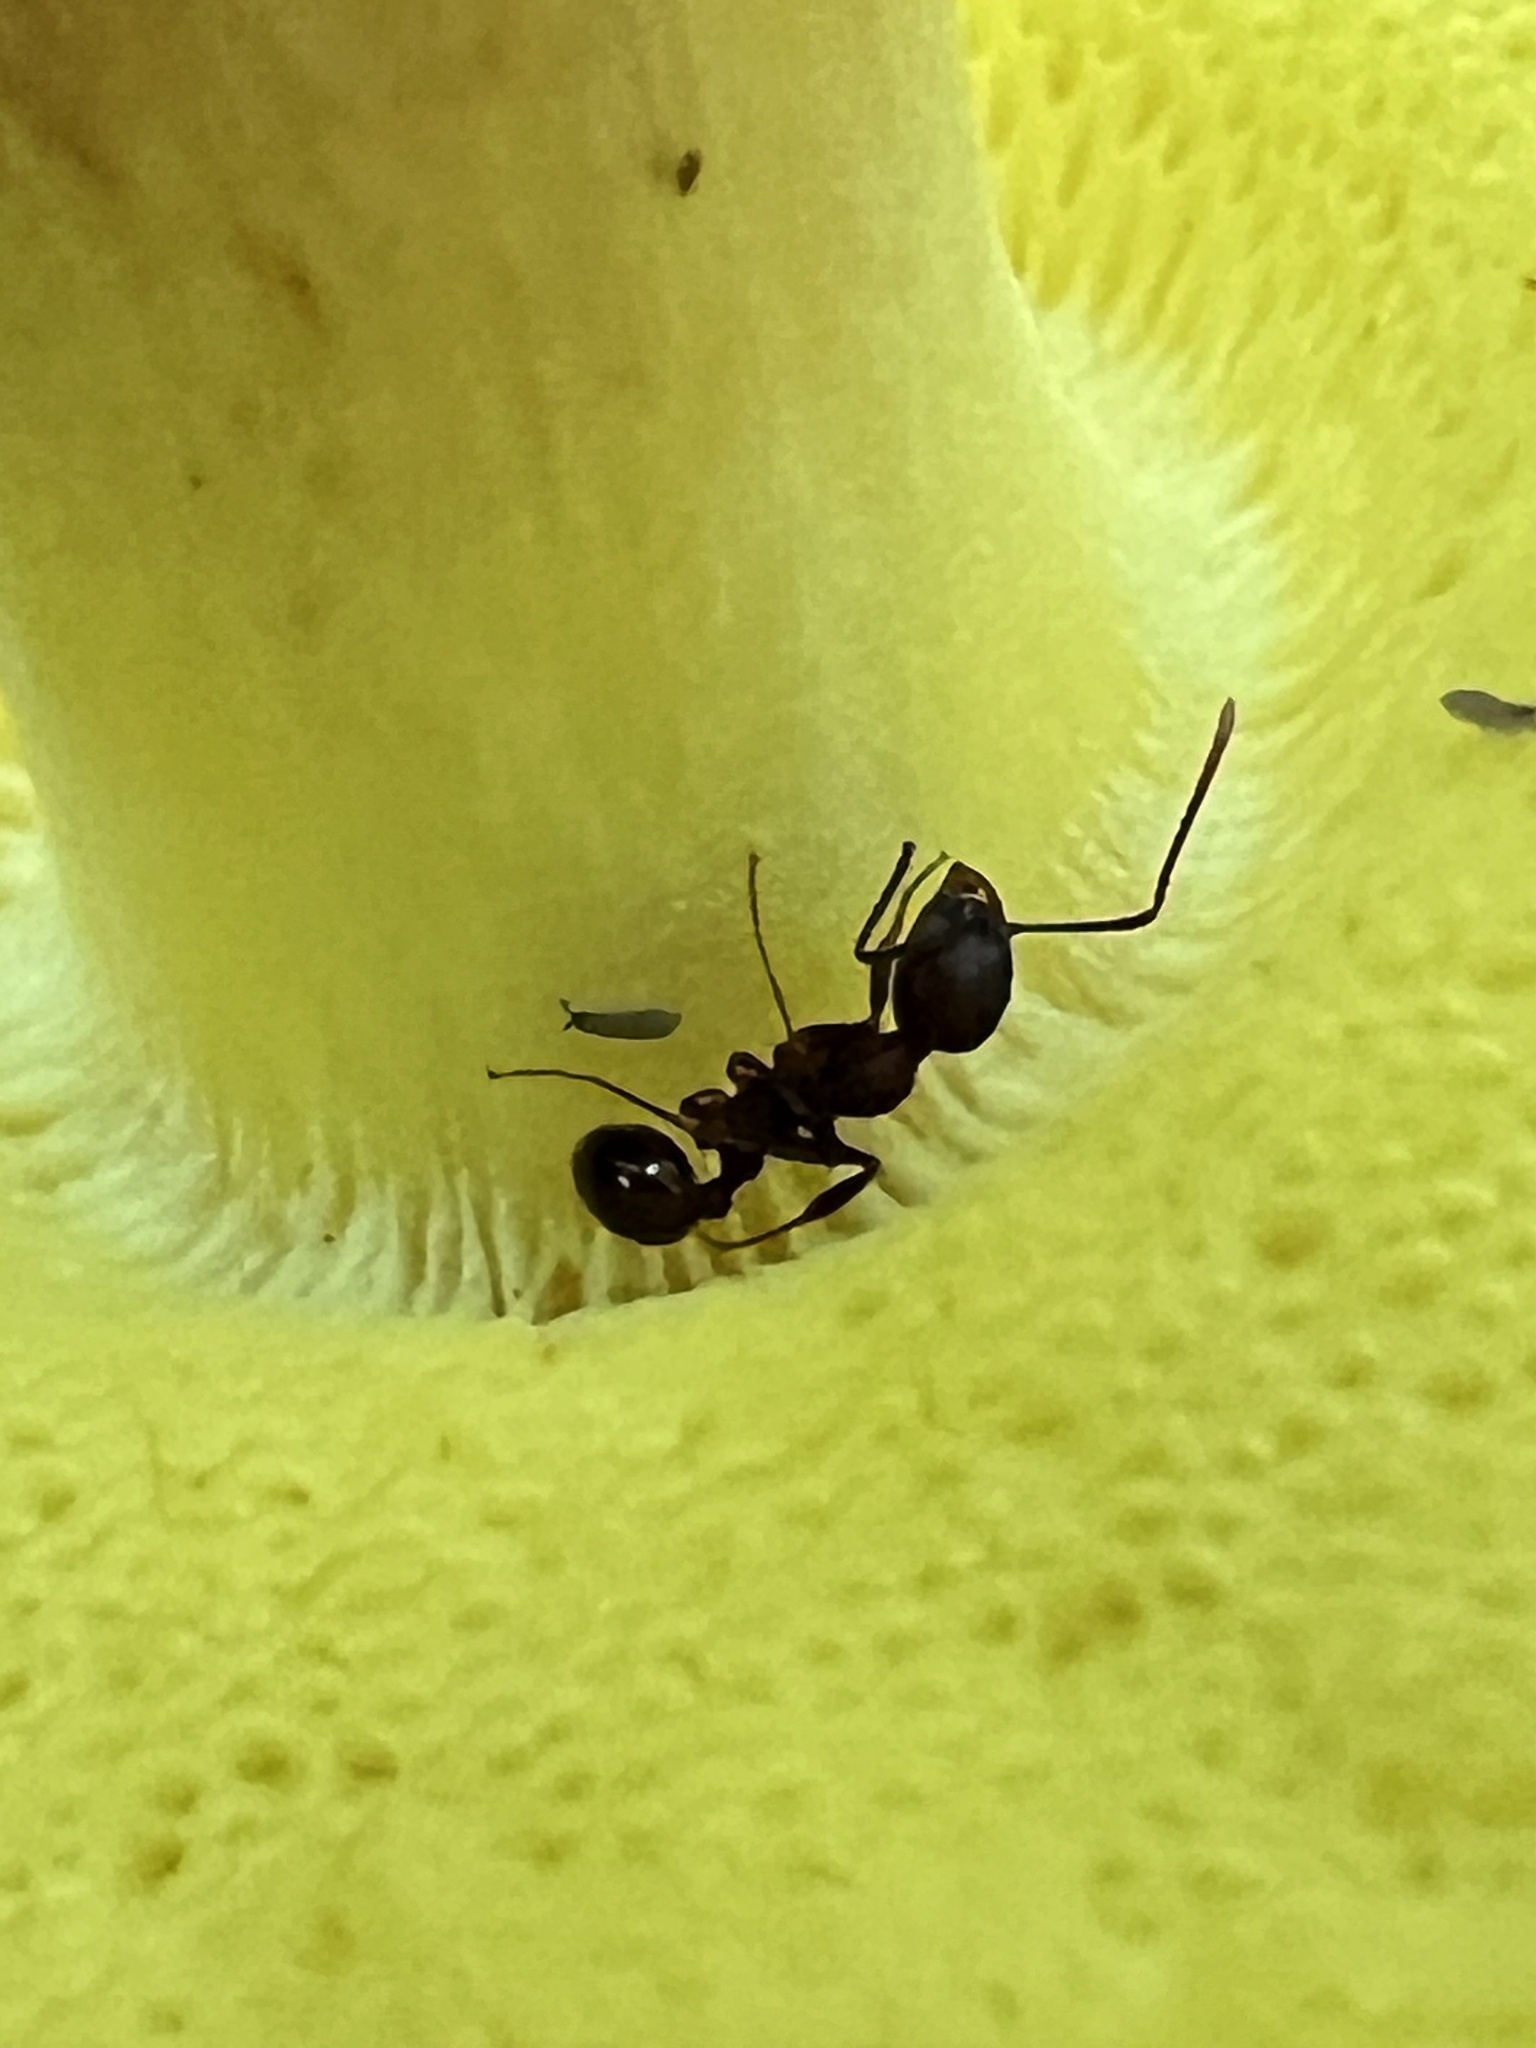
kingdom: Animalia
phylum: Arthropoda
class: Insecta
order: Hymenoptera
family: Formicidae
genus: Aphaenogaster
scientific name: Aphaenogaster rudis
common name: Winnow ant
